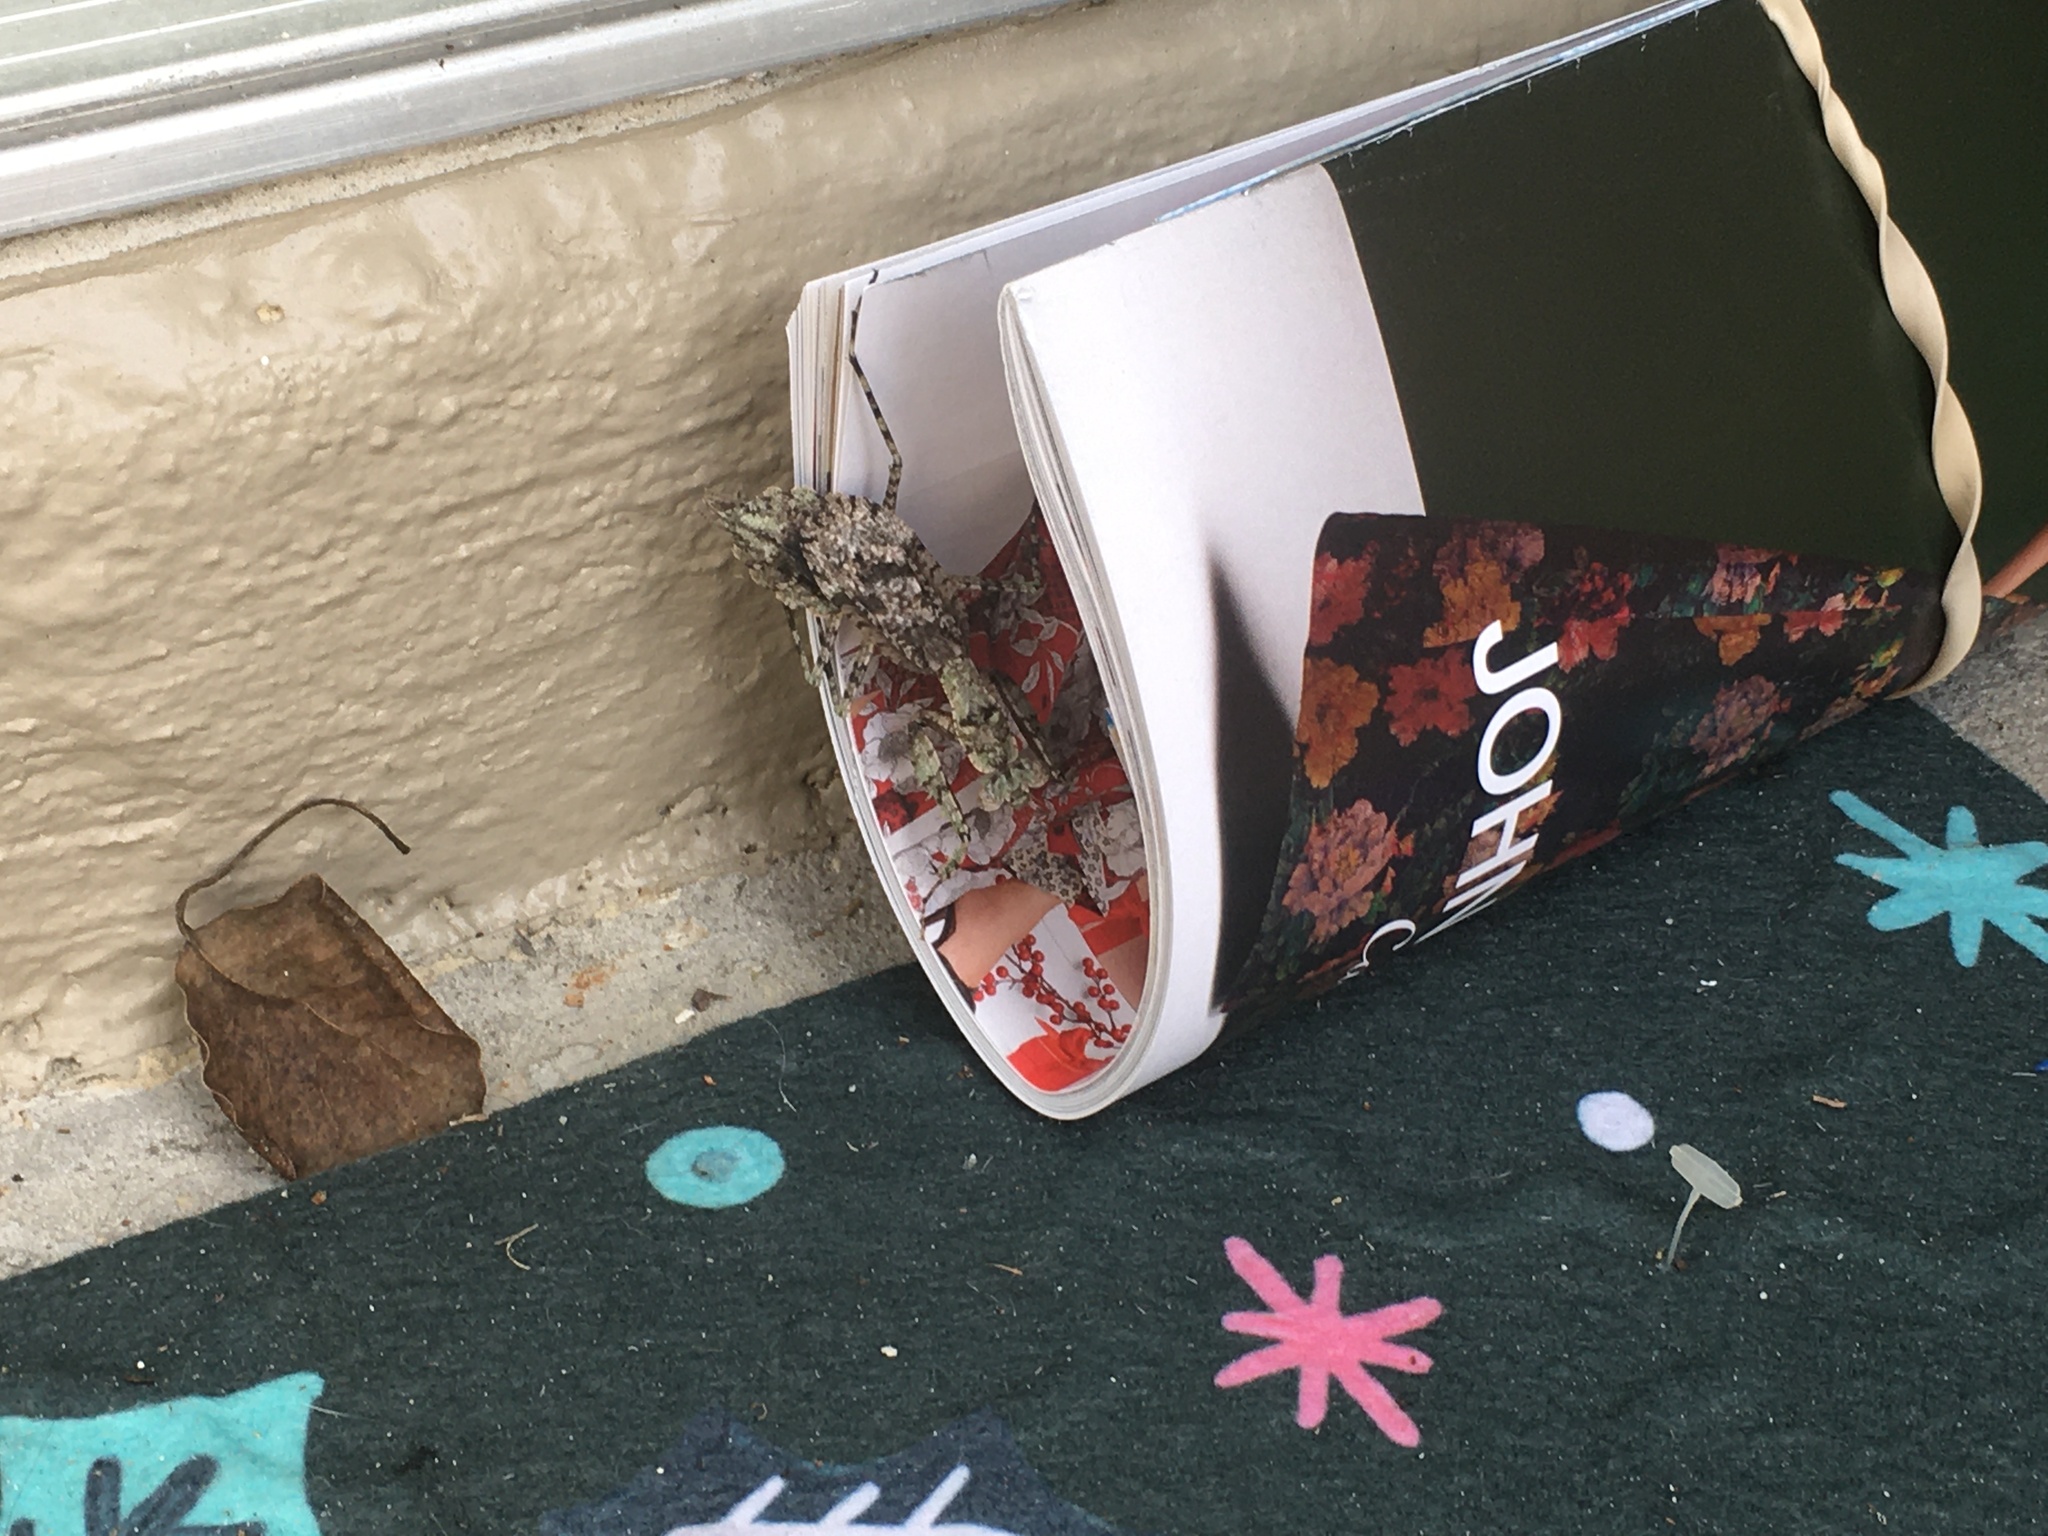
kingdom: Animalia
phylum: Arthropoda
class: Insecta
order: Mantodea
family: Epaphroditidae
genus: Gonatista
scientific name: Gonatista grisea
